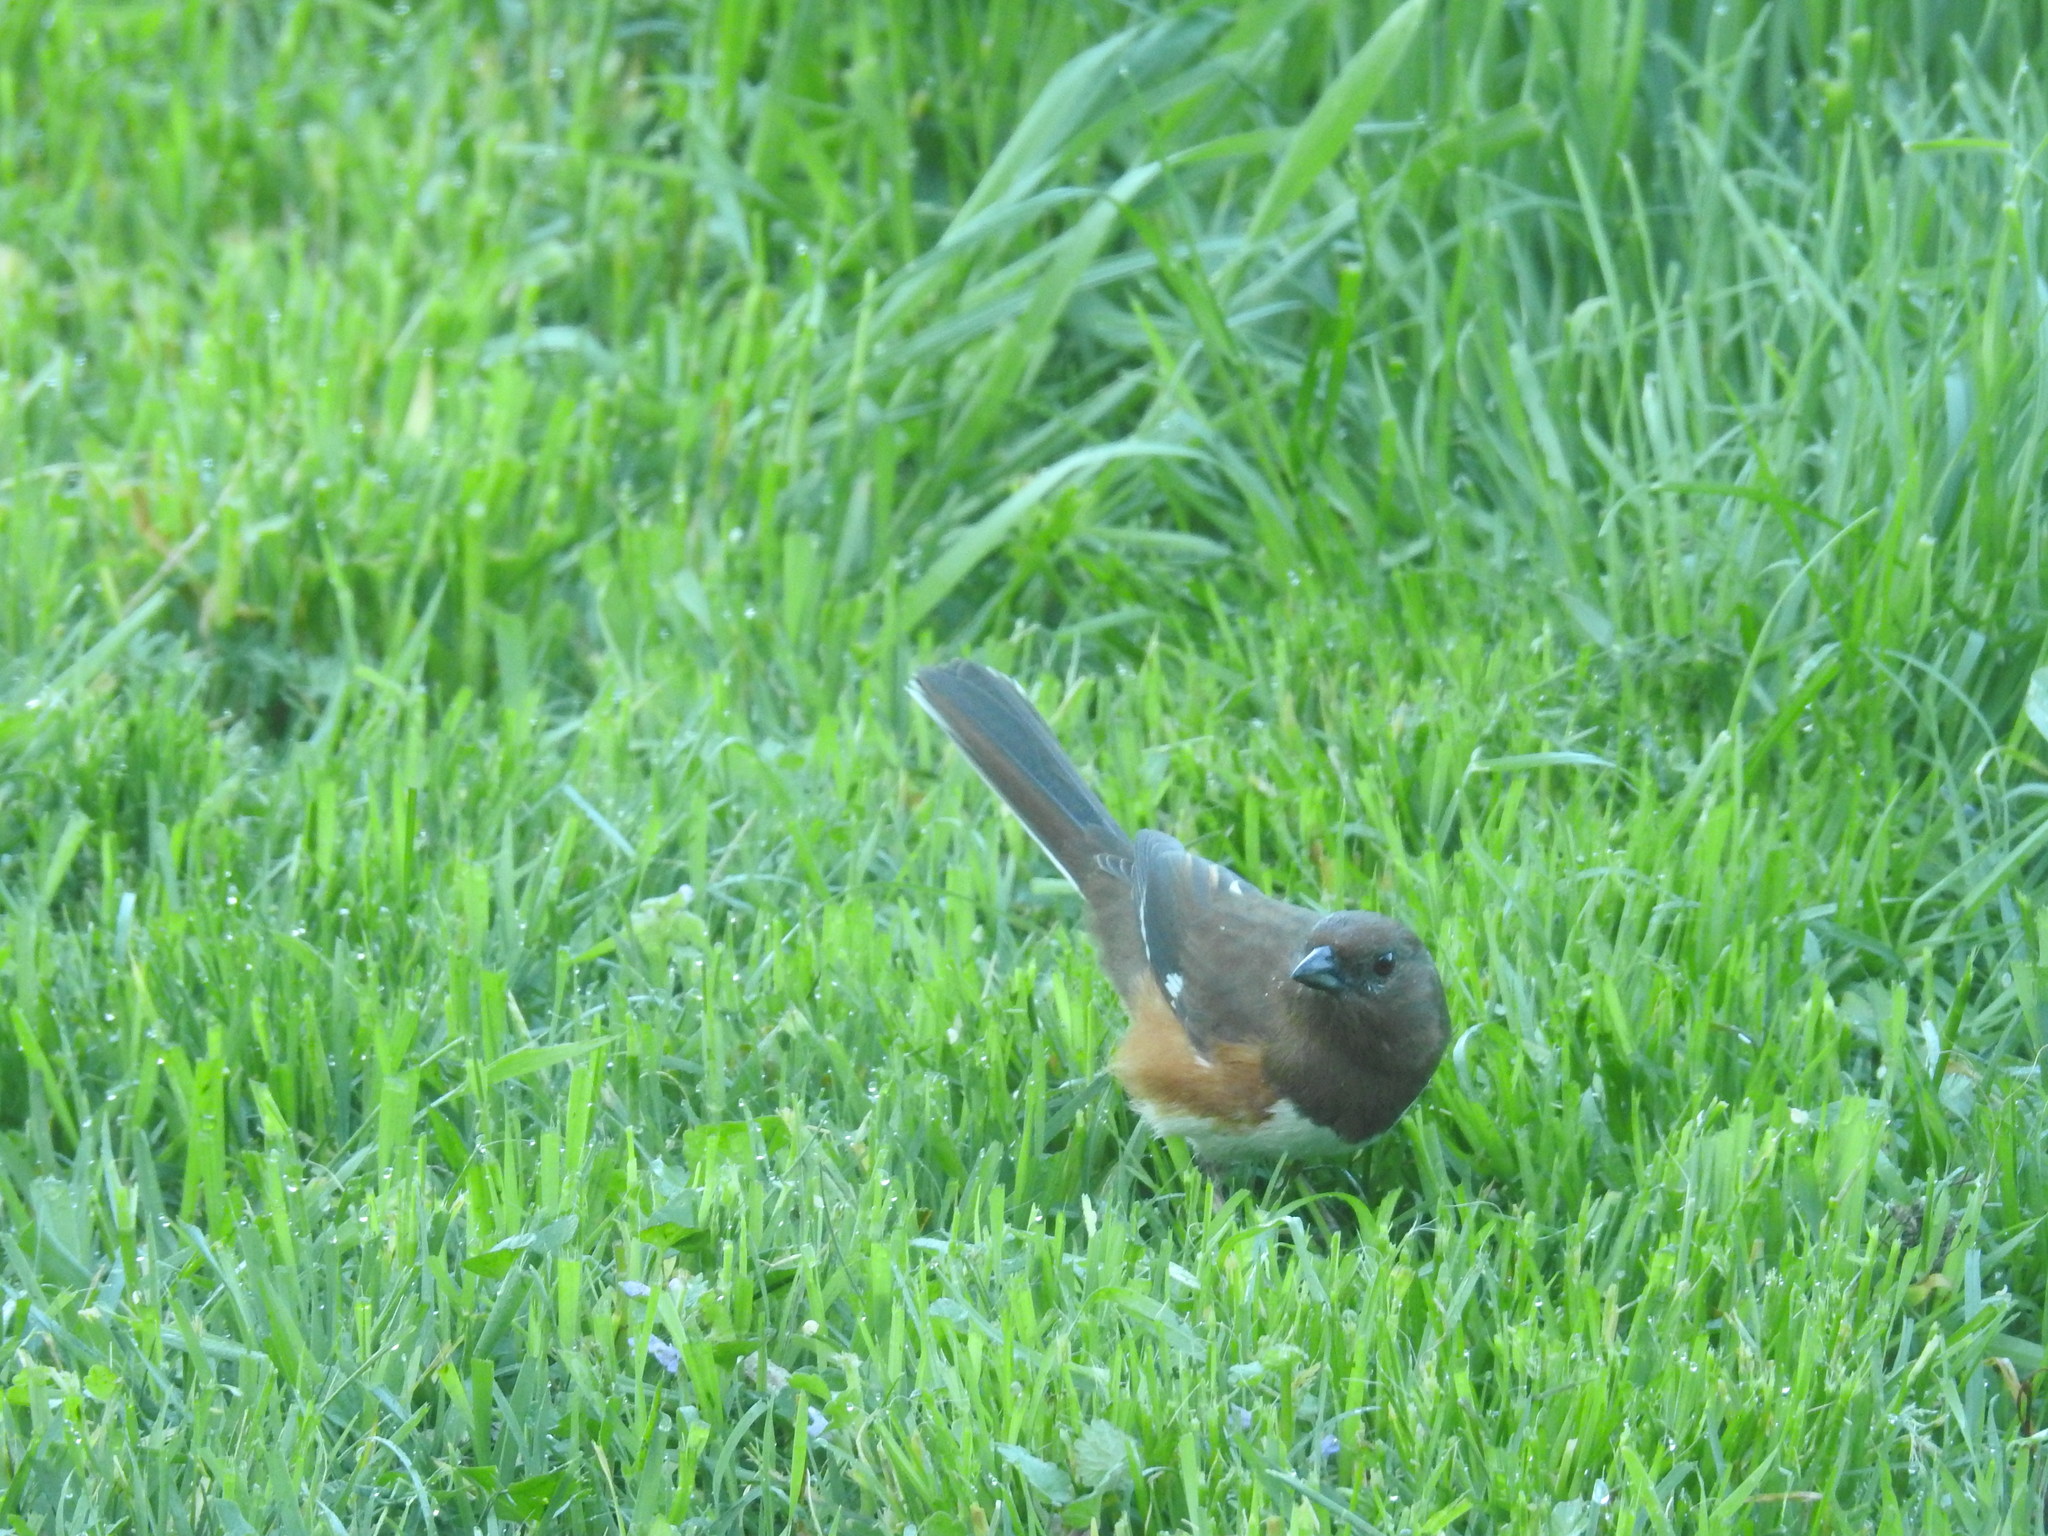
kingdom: Animalia
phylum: Chordata
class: Aves
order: Passeriformes
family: Passerellidae
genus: Pipilo
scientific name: Pipilo erythrophthalmus
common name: Eastern towhee
